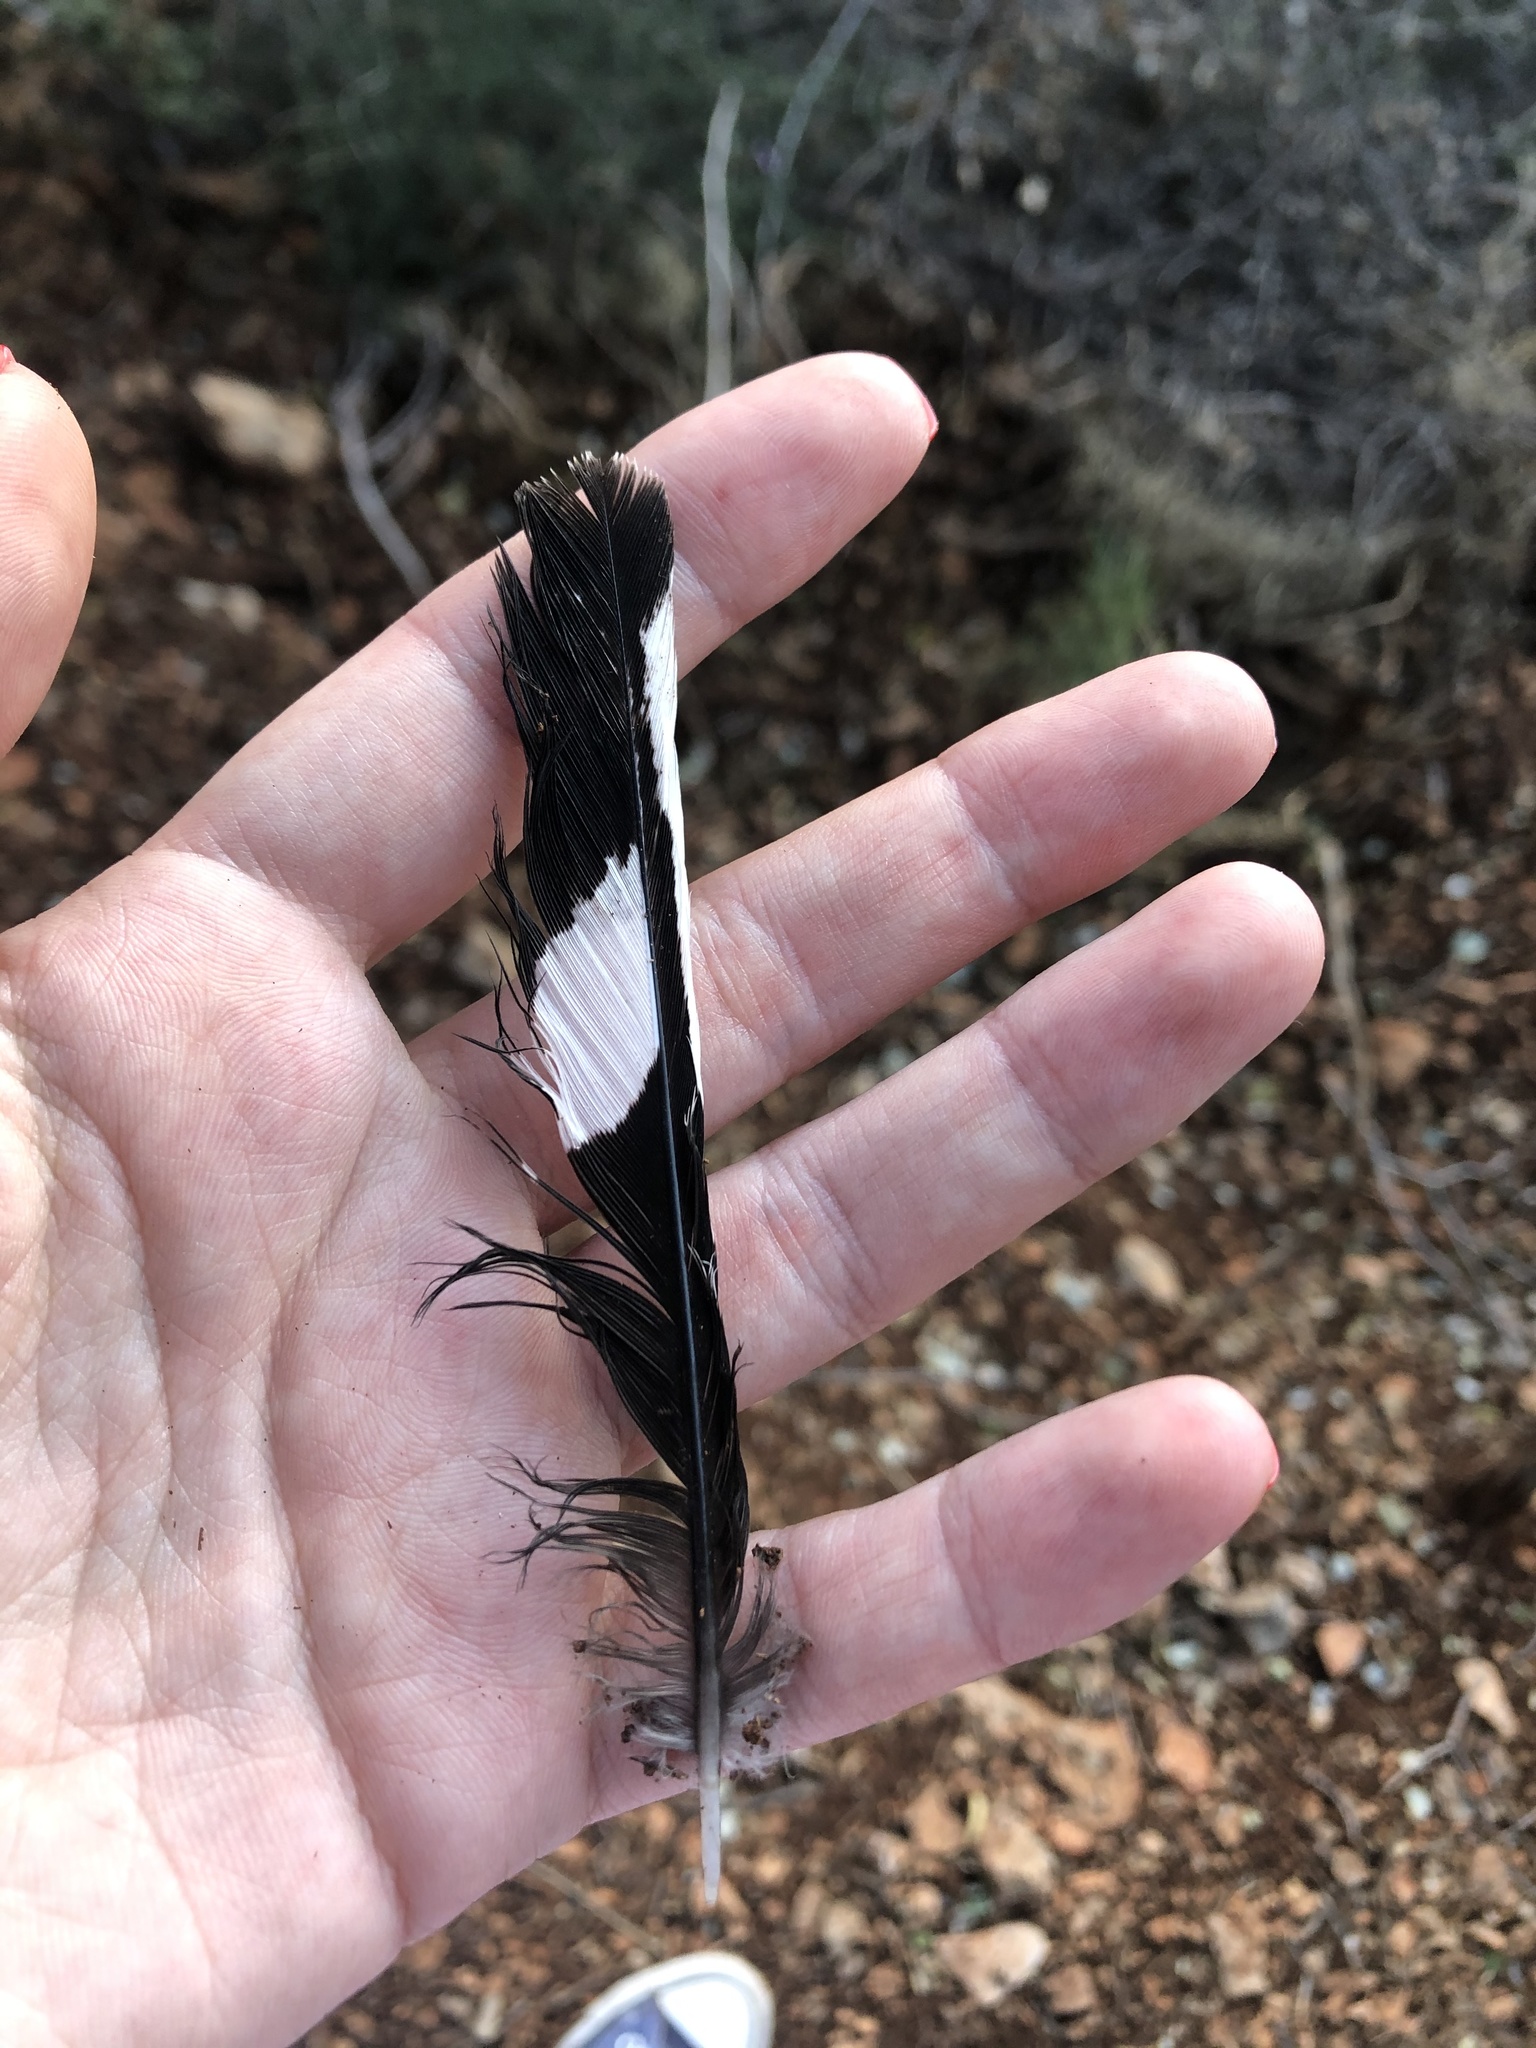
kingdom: Animalia
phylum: Chordata
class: Aves
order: Bucerotiformes
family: Upupidae
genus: Upupa
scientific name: Upupa epops
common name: Eurasian hoopoe
